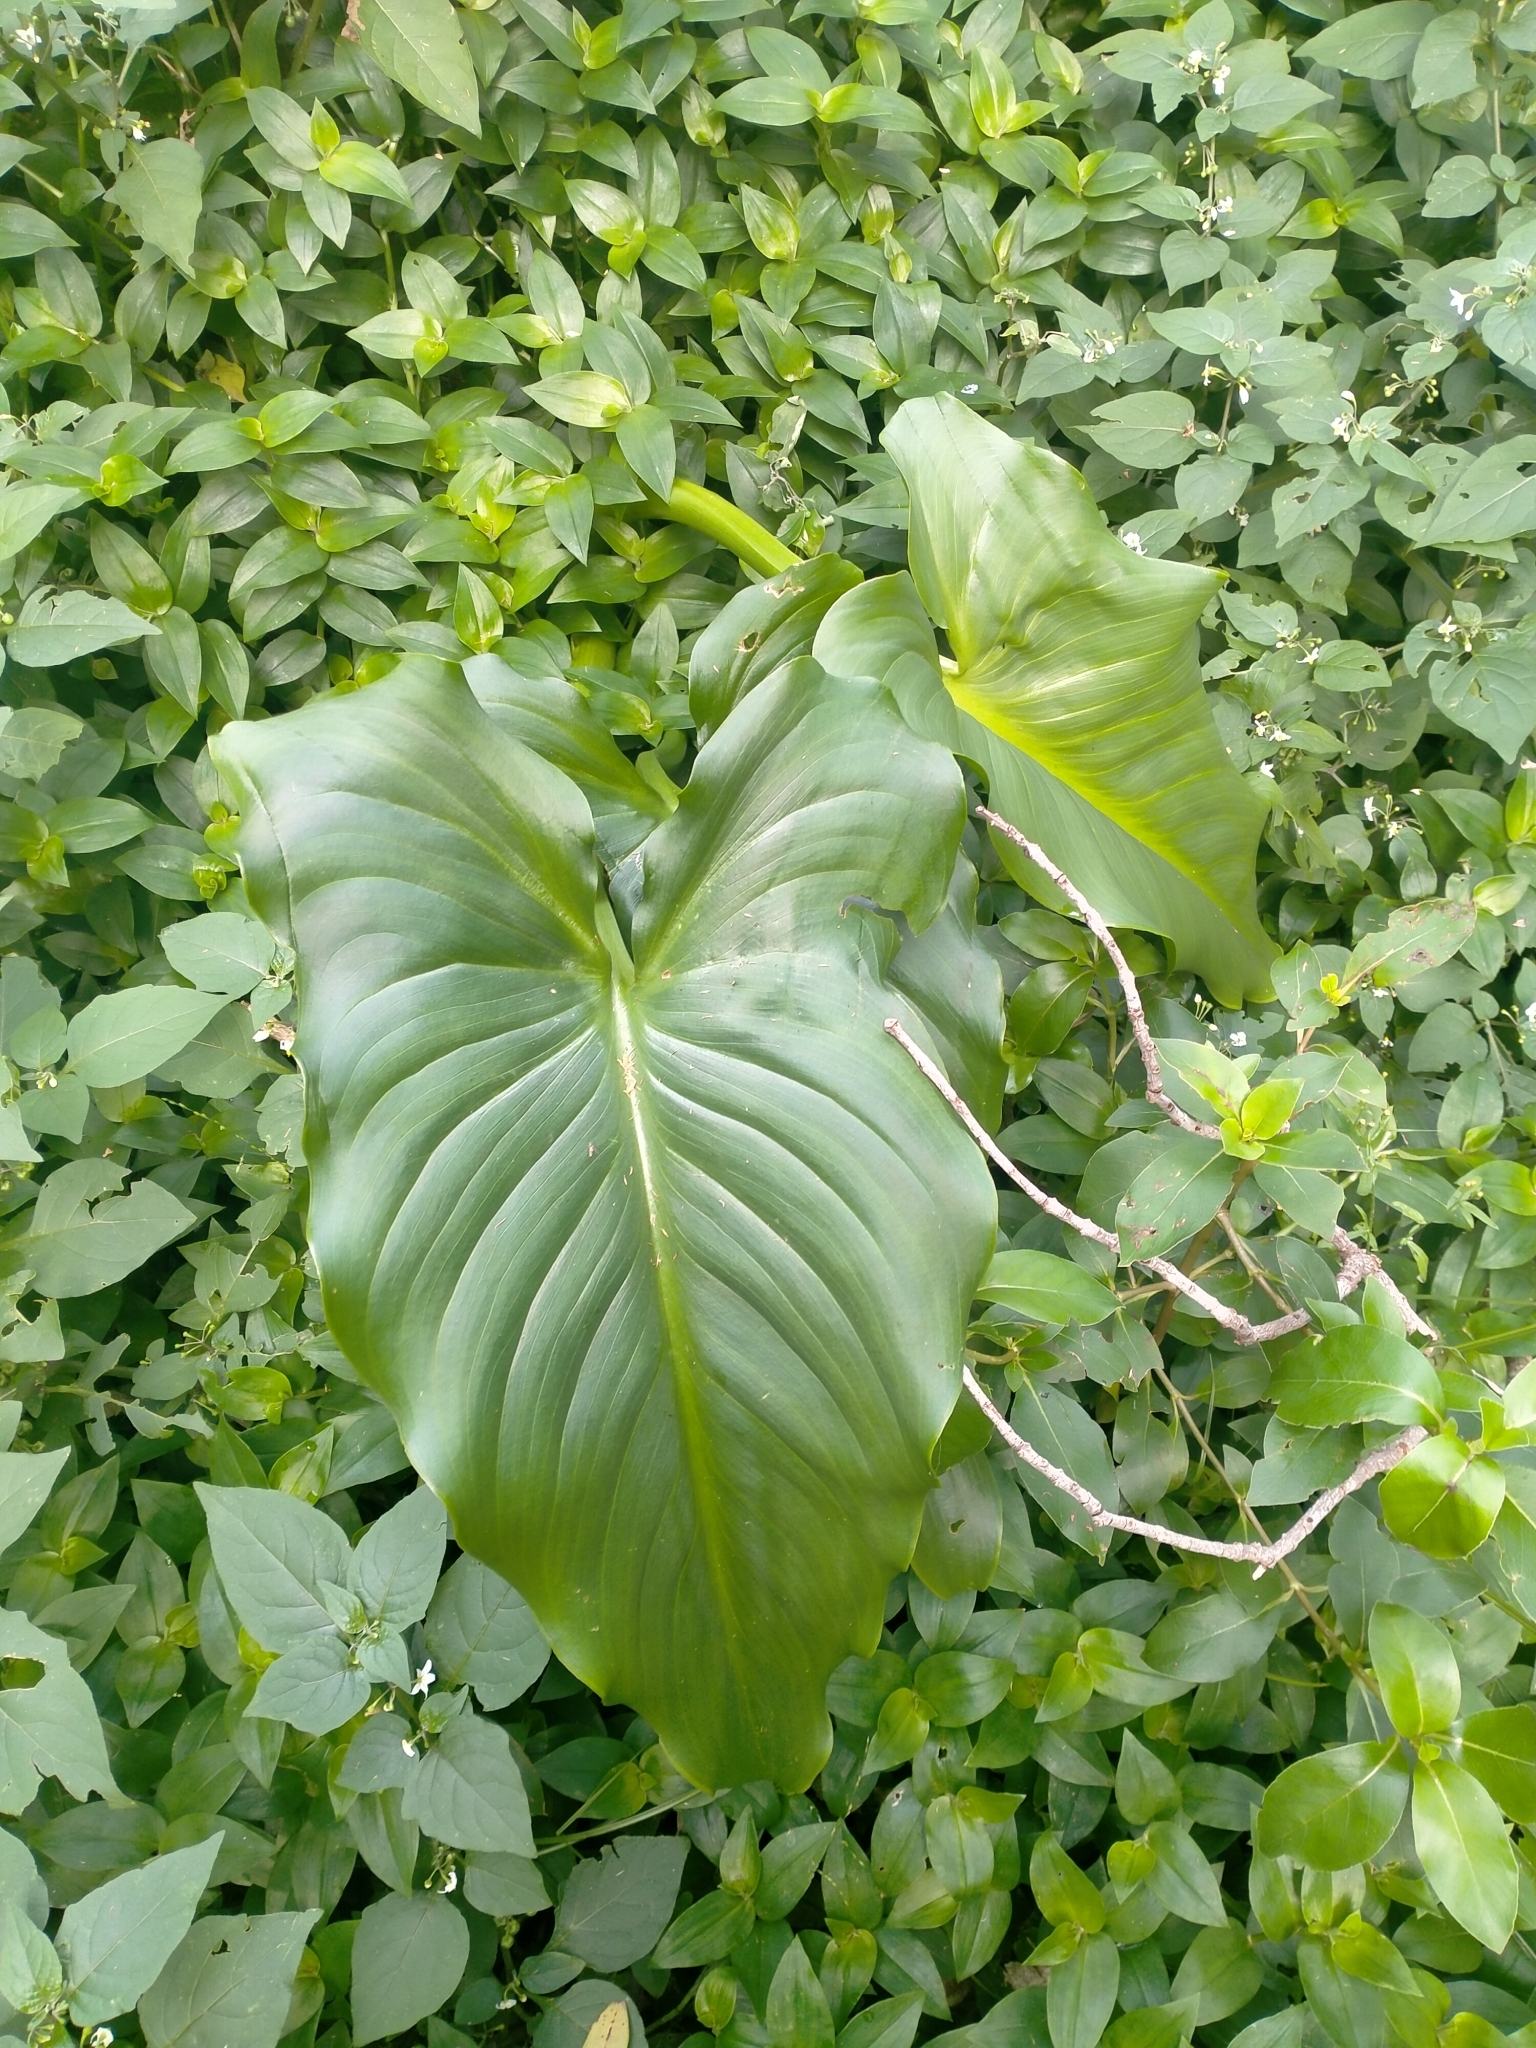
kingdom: Plantae
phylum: Tracheophyta
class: Liliopsida
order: Alismatales
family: Araceae
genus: Zantedeschia
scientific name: Zantedeschia aethiopica
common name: Altar-lily
